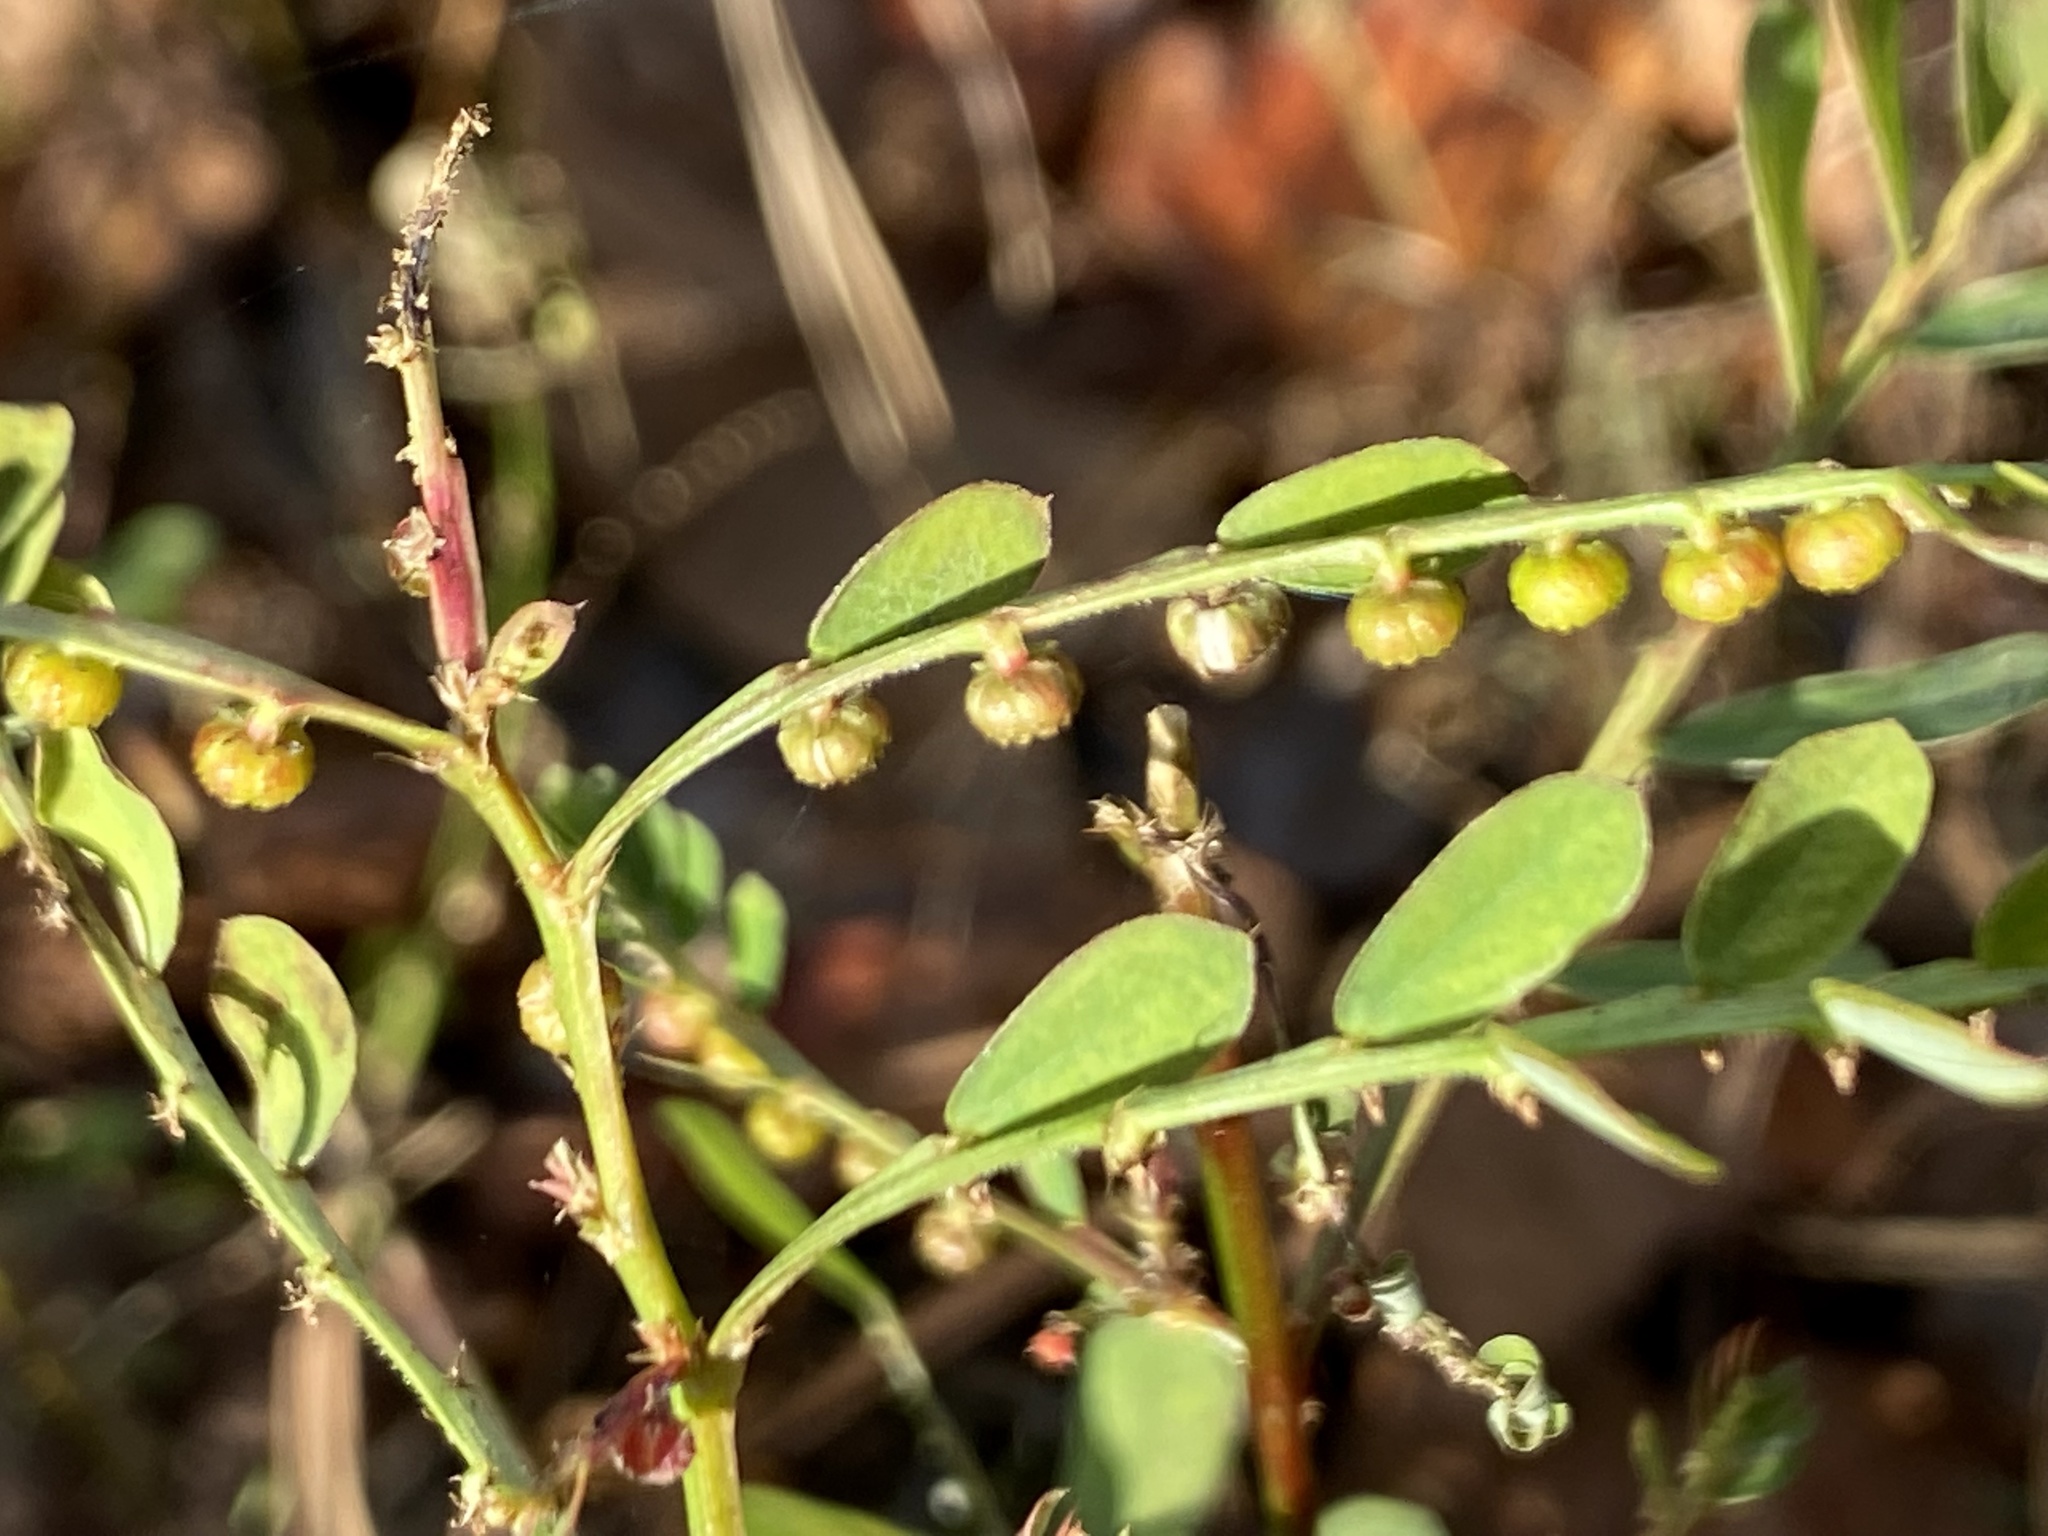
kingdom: Plantae
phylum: Tracheophyta
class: Magnoliopsida
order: Malpighiales
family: Phyllanthaceae
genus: Phyllanthus
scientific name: Phyllanthus urinaria
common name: Chamber bitter
